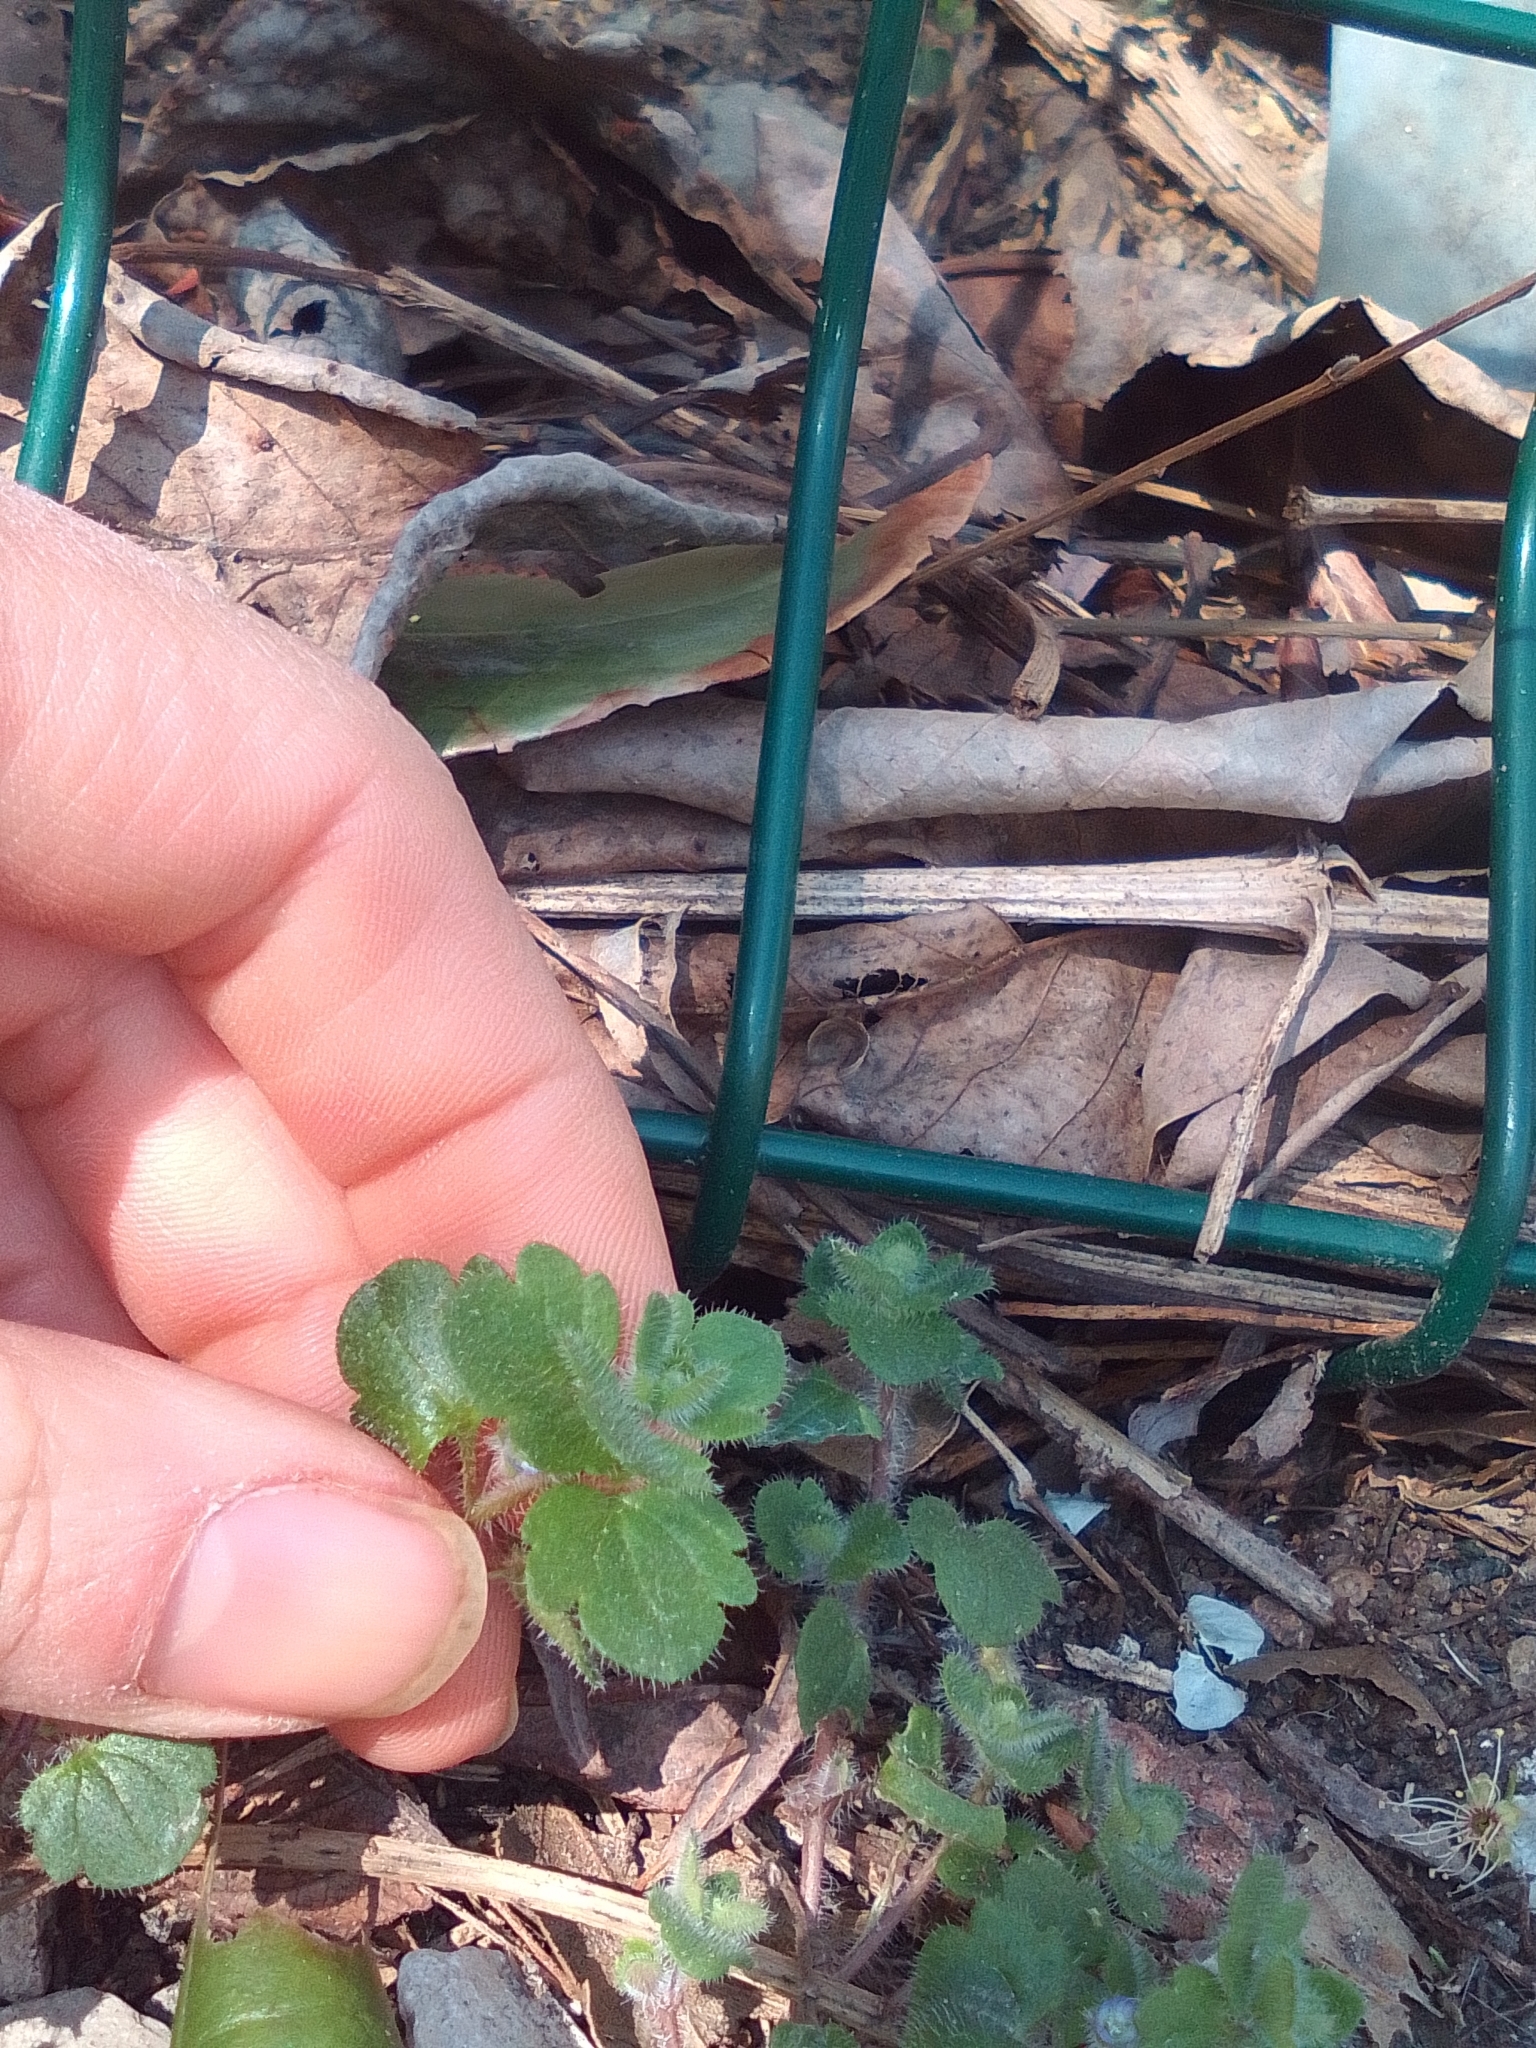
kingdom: Plantae
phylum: Tracheophyta
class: Magnoliopsida
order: Lamiales
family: Plantaginaceae
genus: Veronica
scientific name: Veronica hederifolia
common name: Ivy-leaved speedwell
